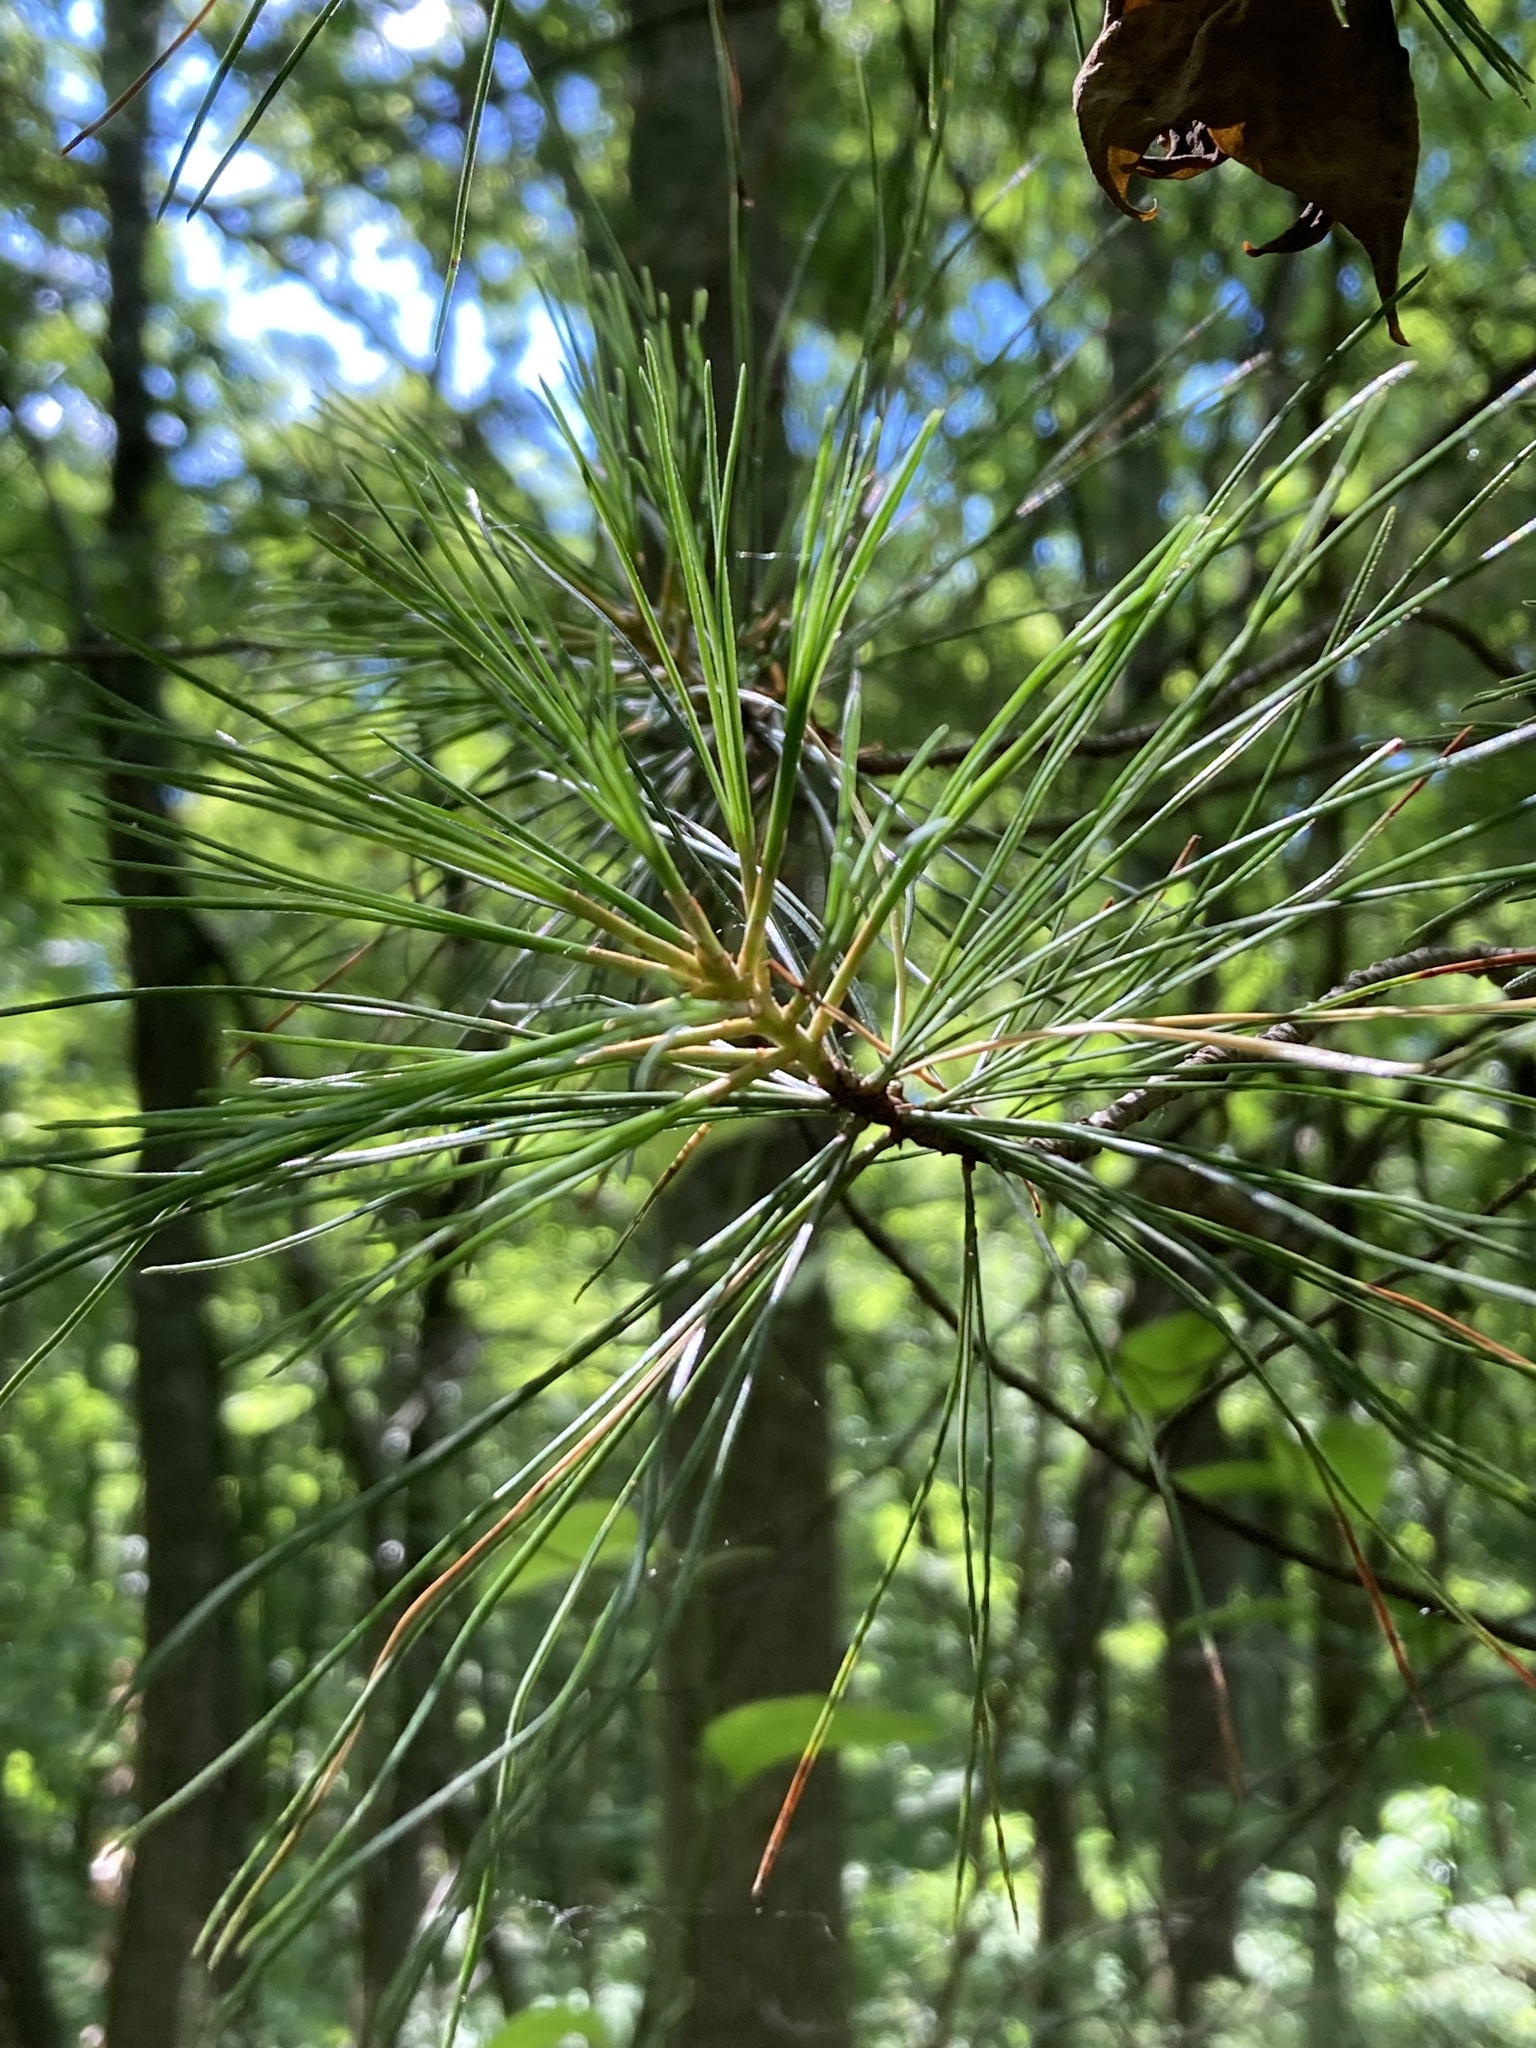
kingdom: Plantae
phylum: Tracheophyta
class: Pinopsida
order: Pinales
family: Pinaceae
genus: Pinus
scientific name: Pinus strobus
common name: Weymouth pine
